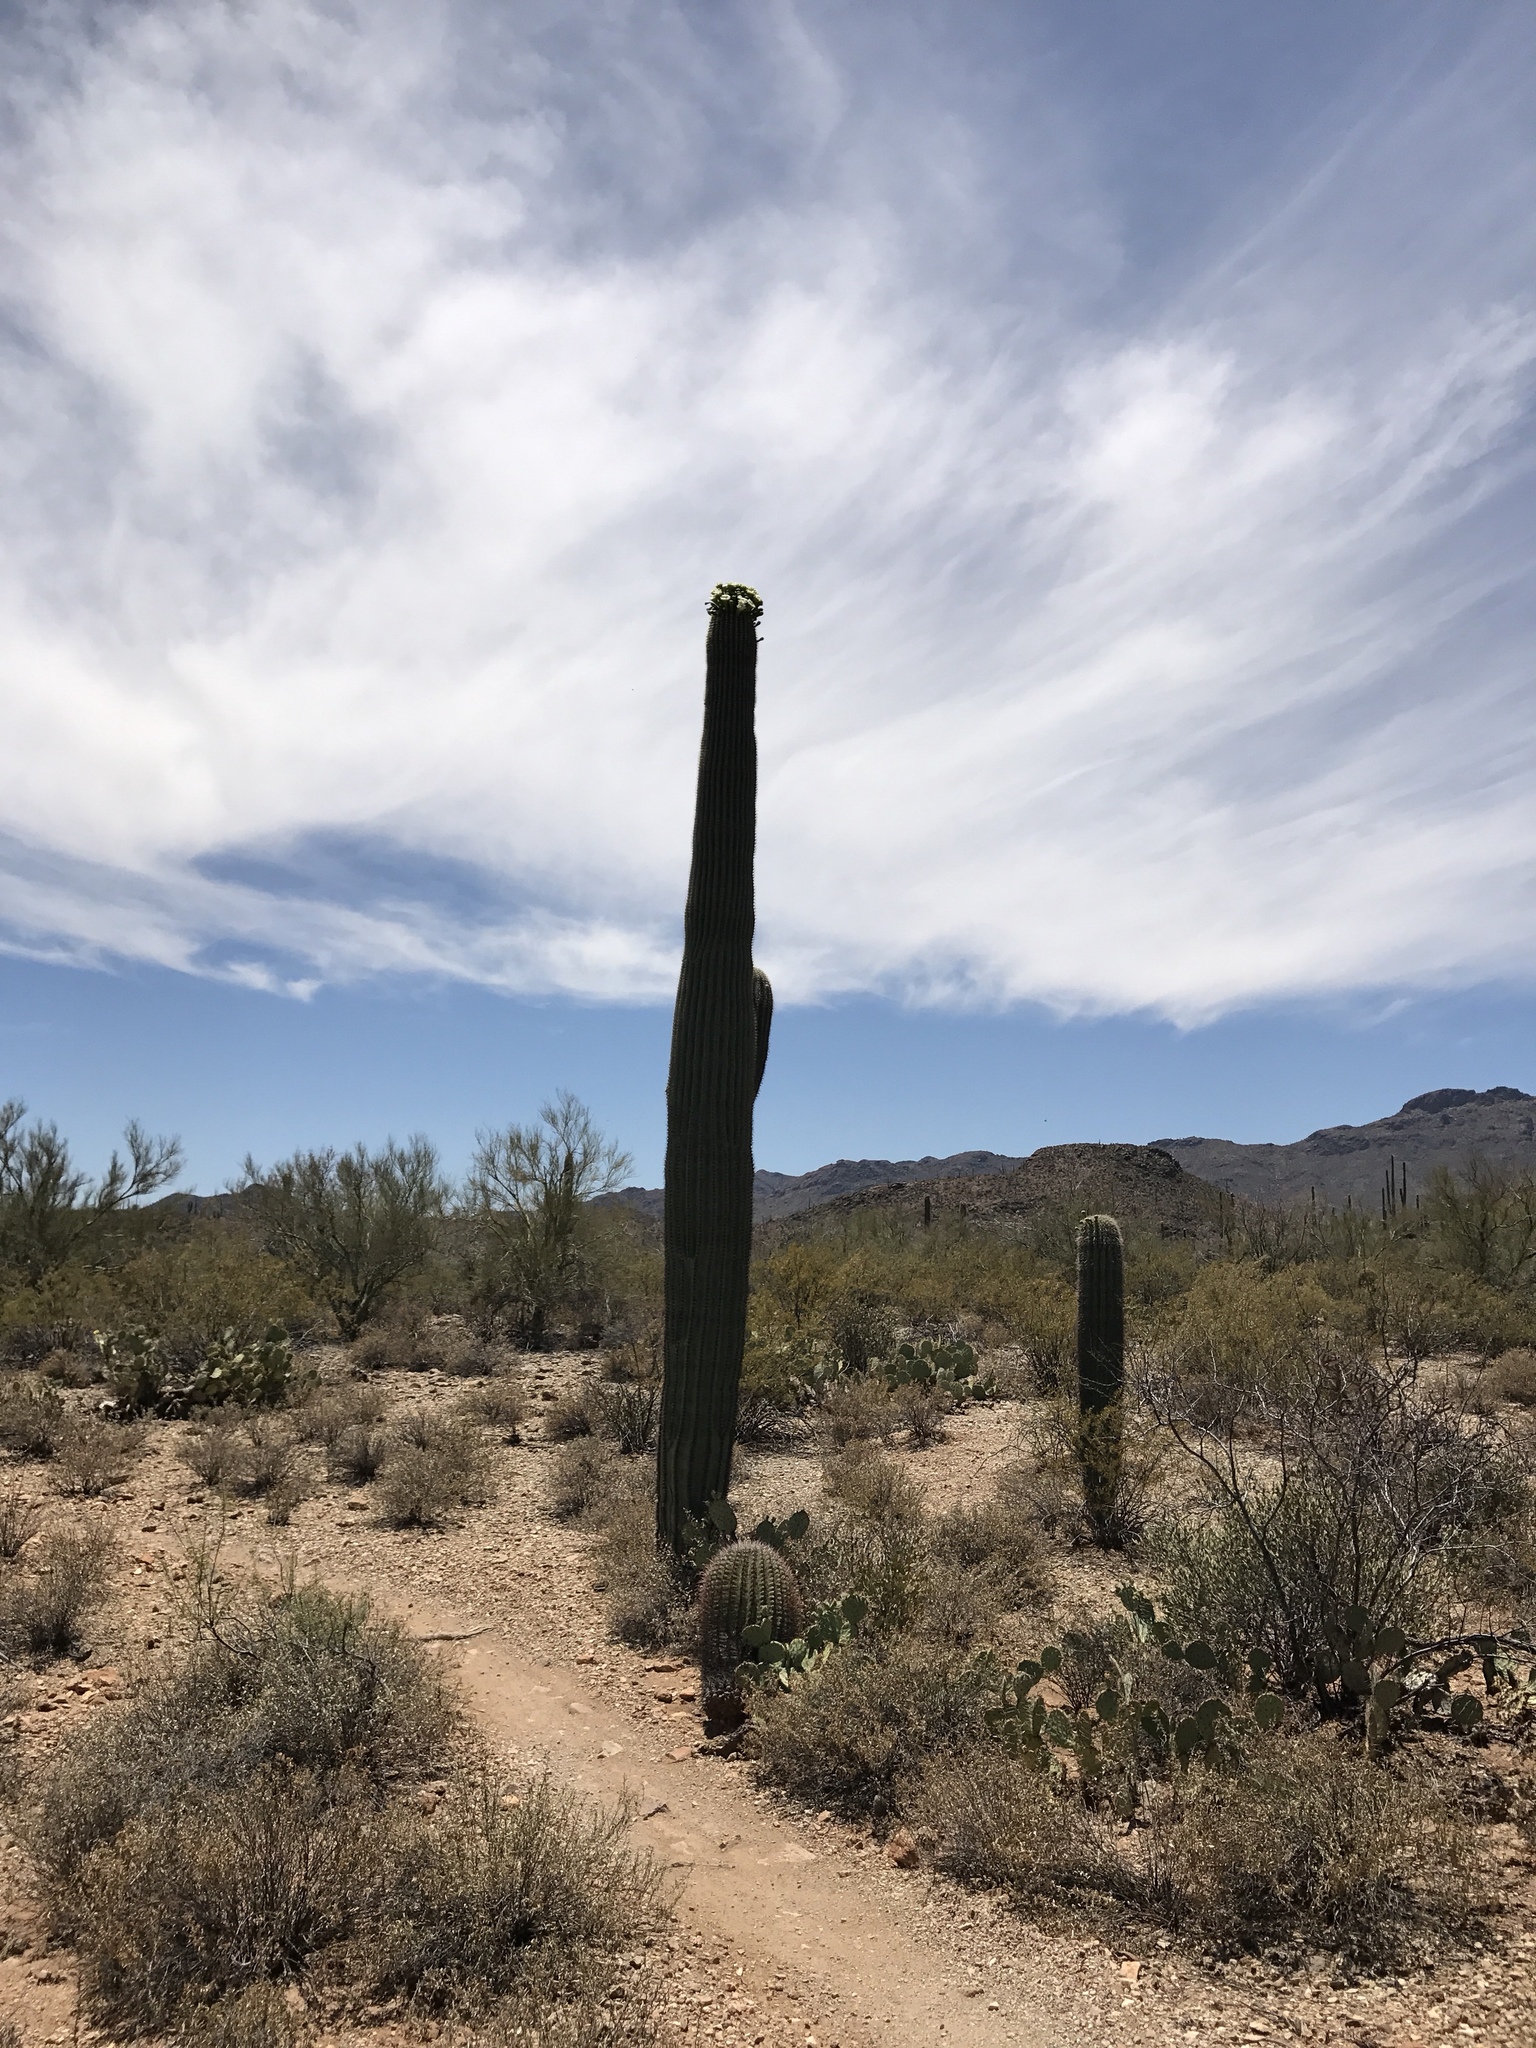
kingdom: Plantae
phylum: Tracheophyta
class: Magnoliopsida
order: Caryophyllales
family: Cactaceae
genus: Carnegiea
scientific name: Carnegiea gigantea
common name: Saguaro
